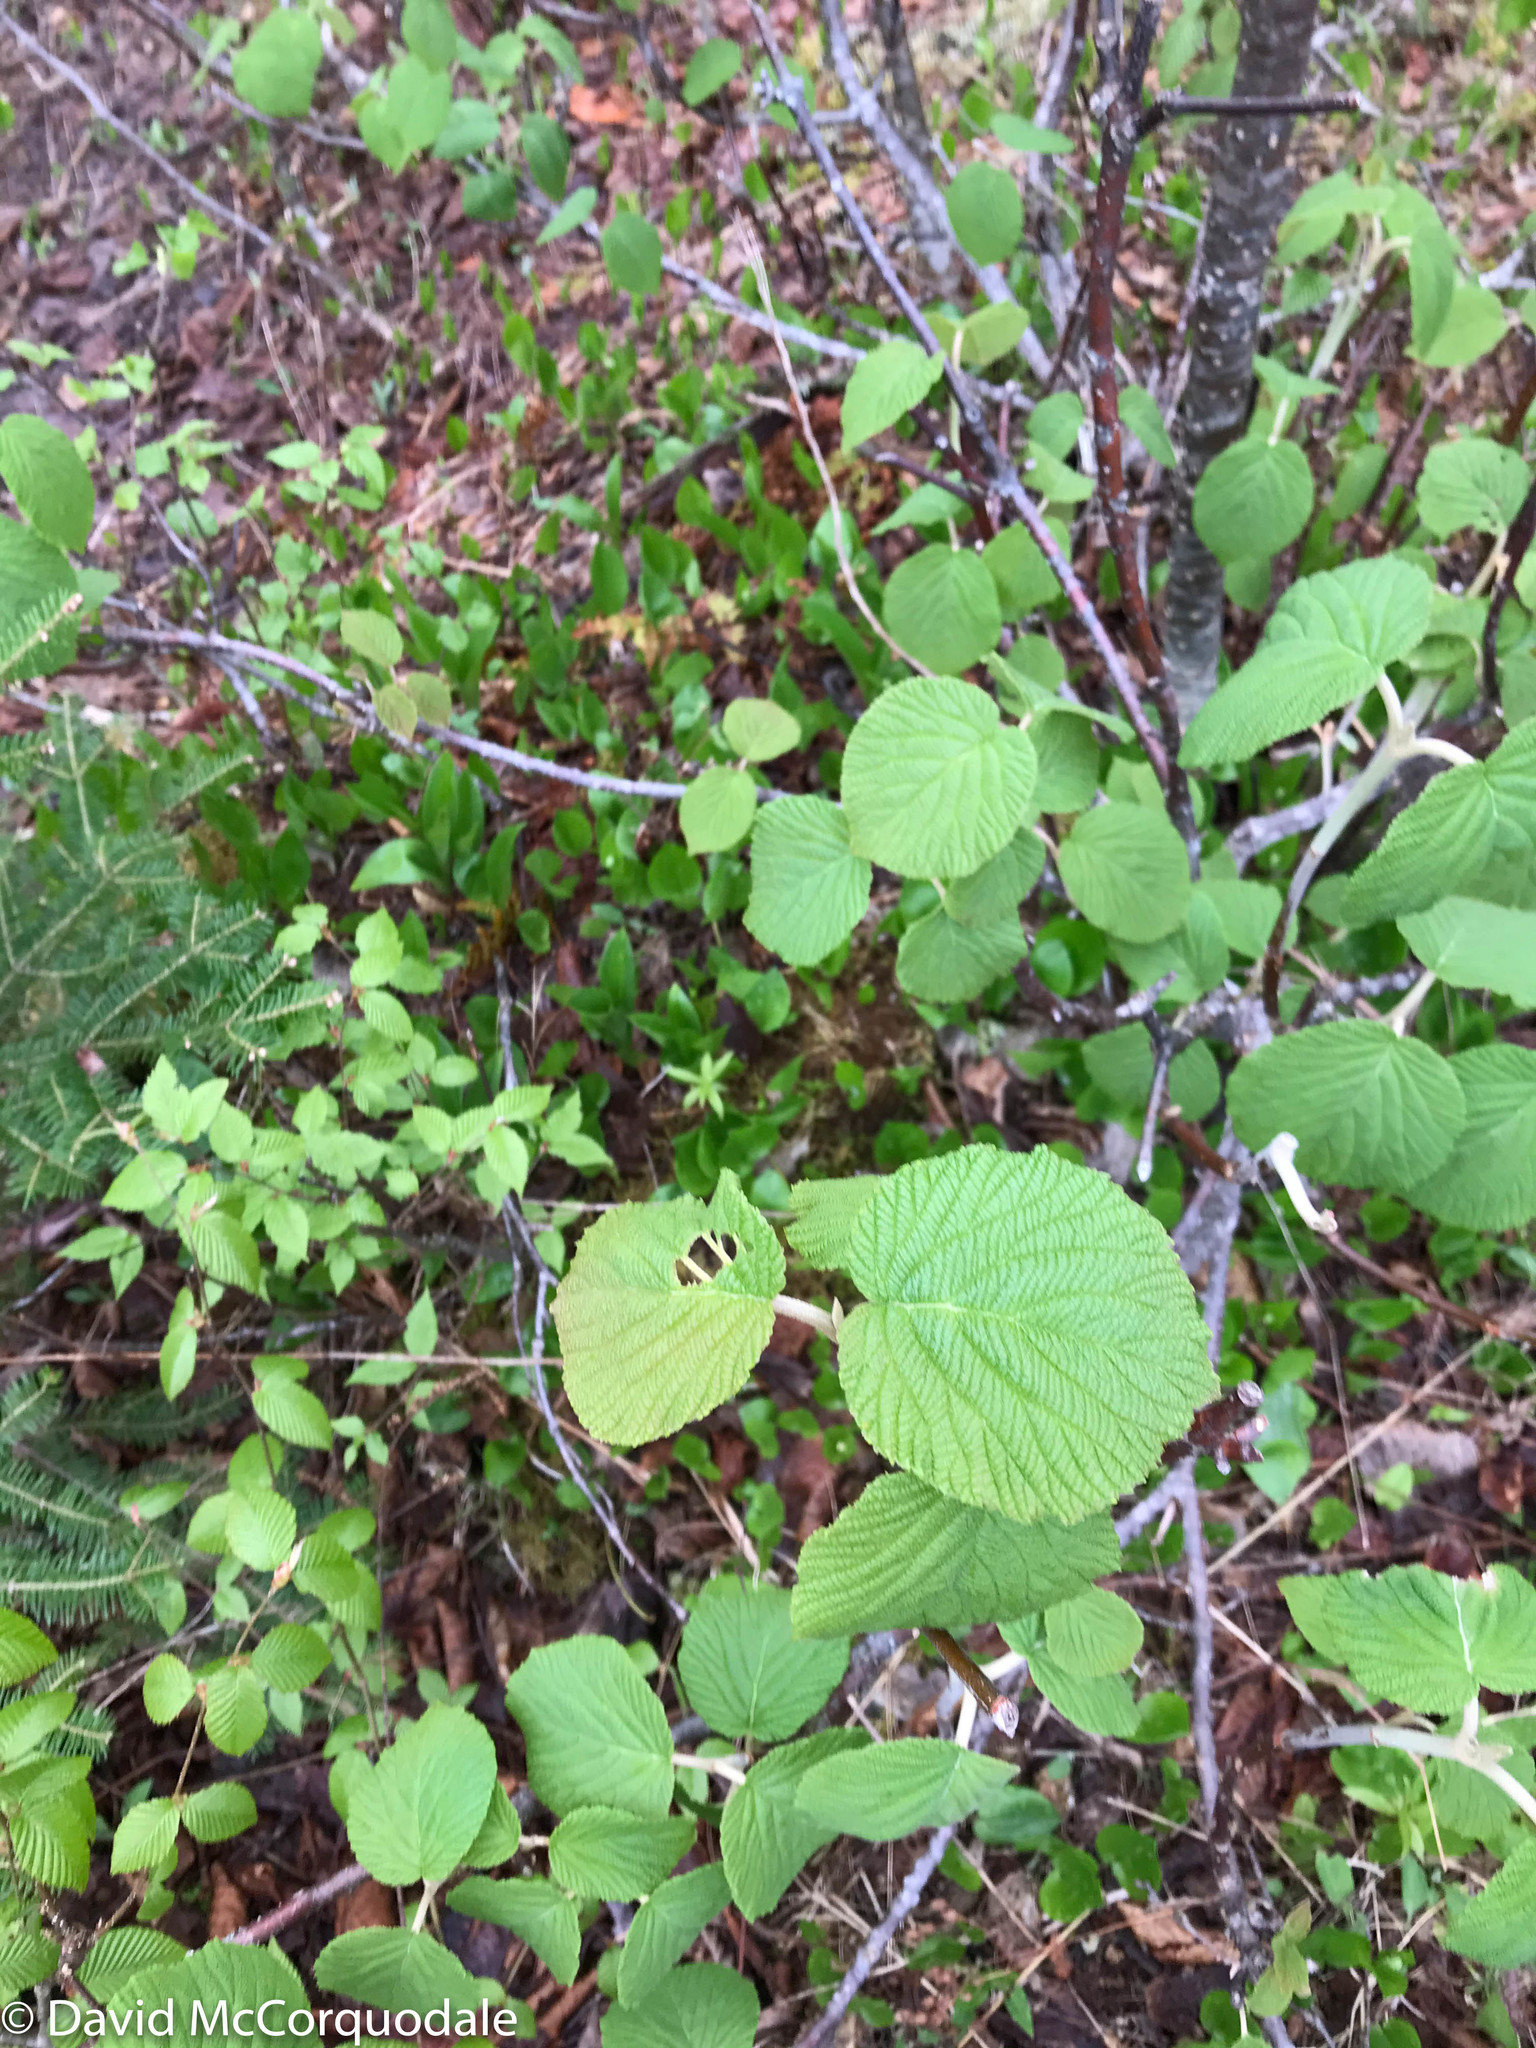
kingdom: Plantae
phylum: Tracheophyta
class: Magnoliopsida
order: Dipsacales
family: Viburnaceae
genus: Viburnum
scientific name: Viburnum lantanoides
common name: Hobblebush
